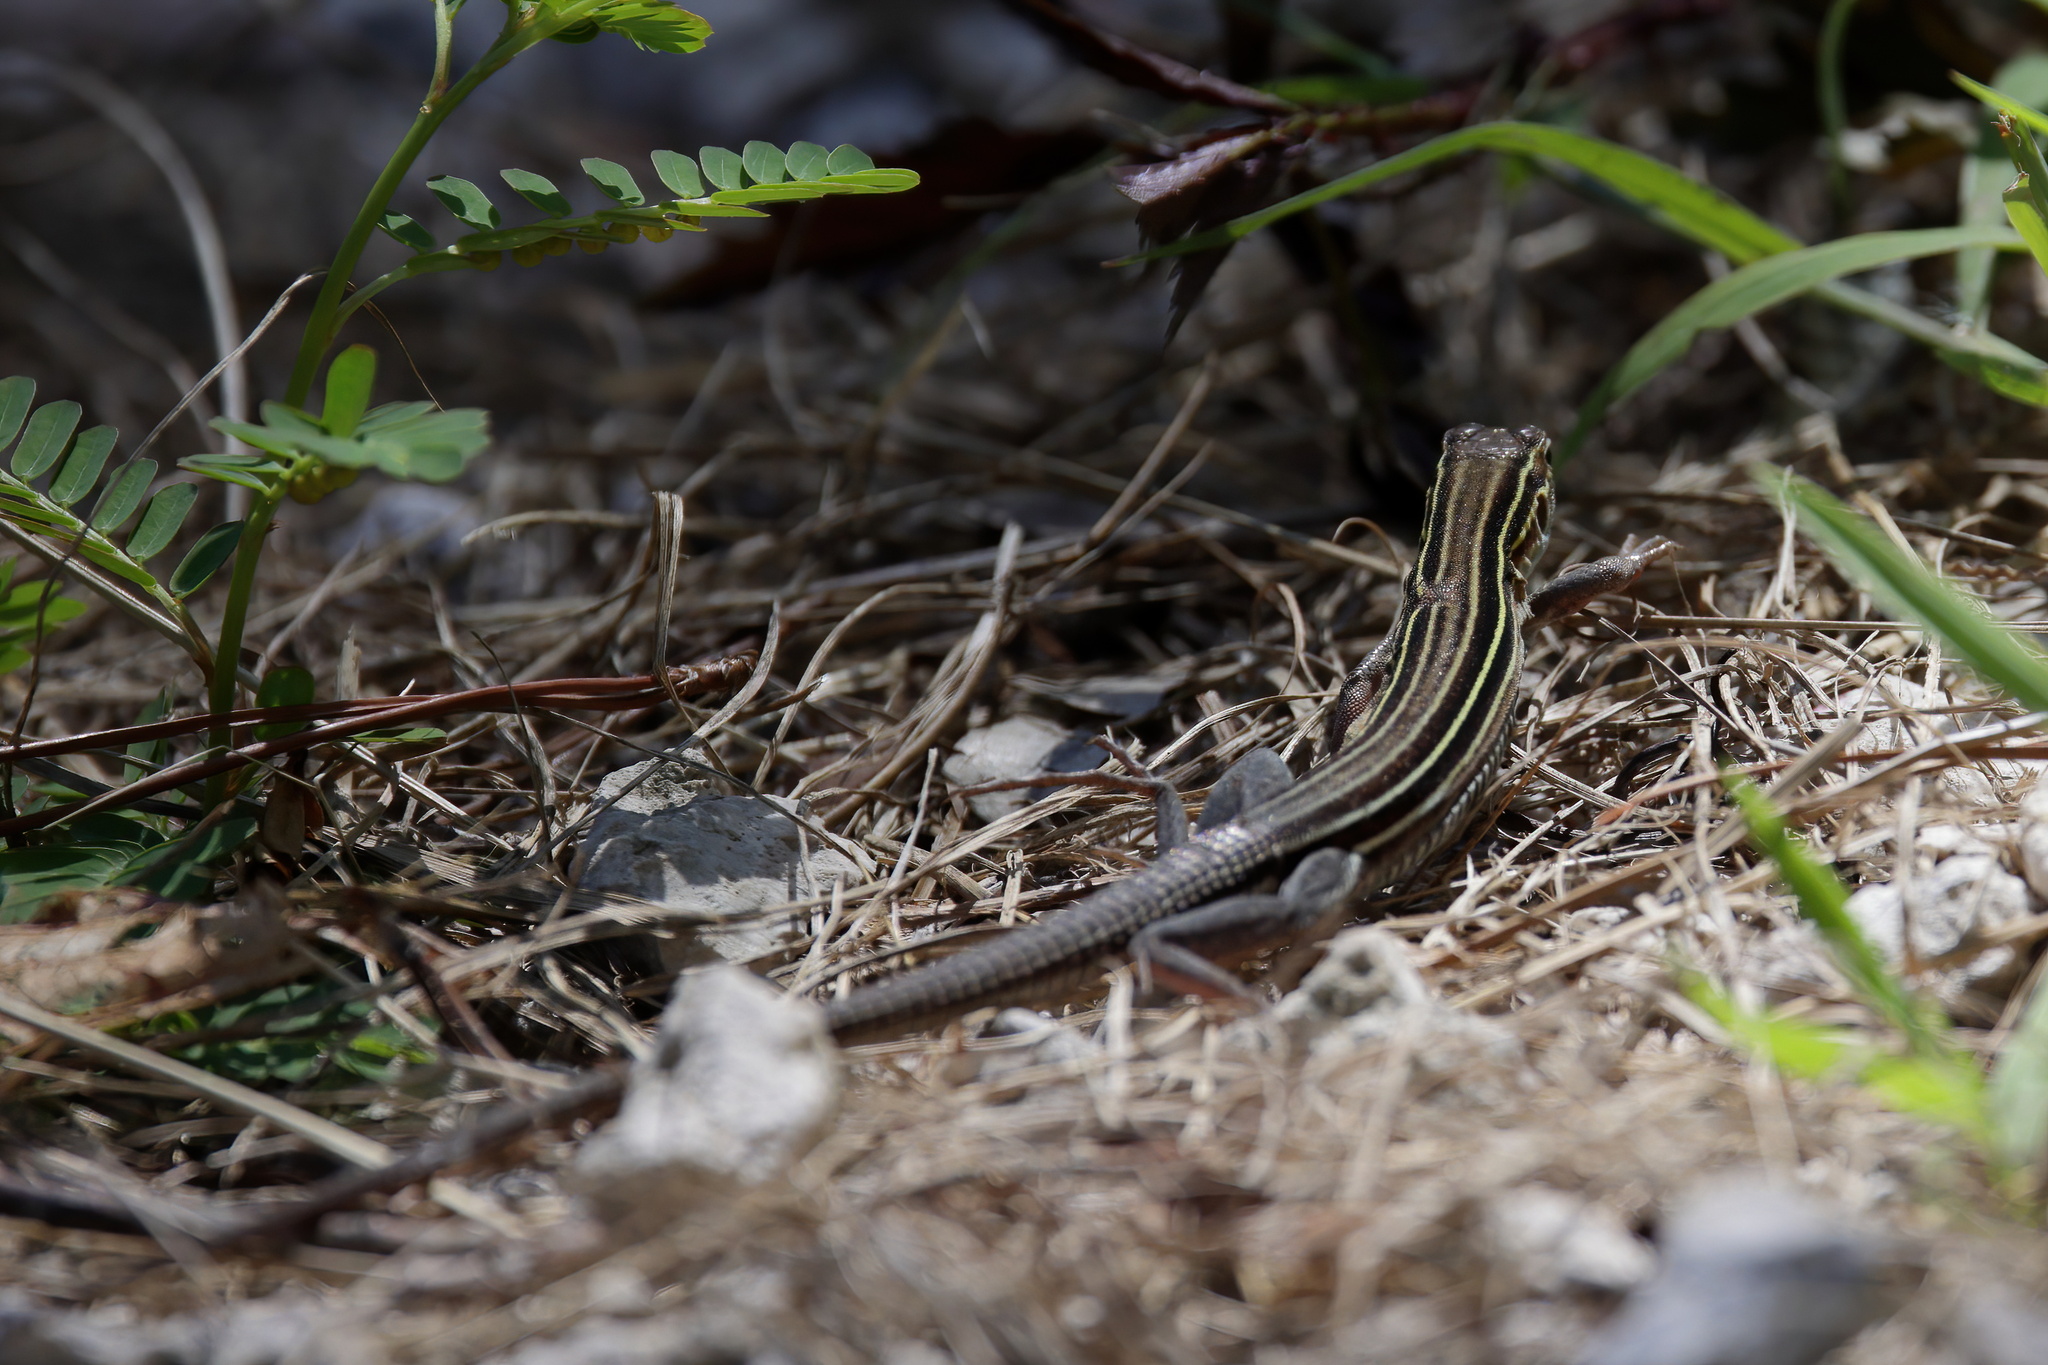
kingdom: Animalia
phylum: Chordata
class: Squamata
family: Teiidae
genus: Aspidoscelis
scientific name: Aspidoscelis sexlineatus
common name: Six-lined racerunner
